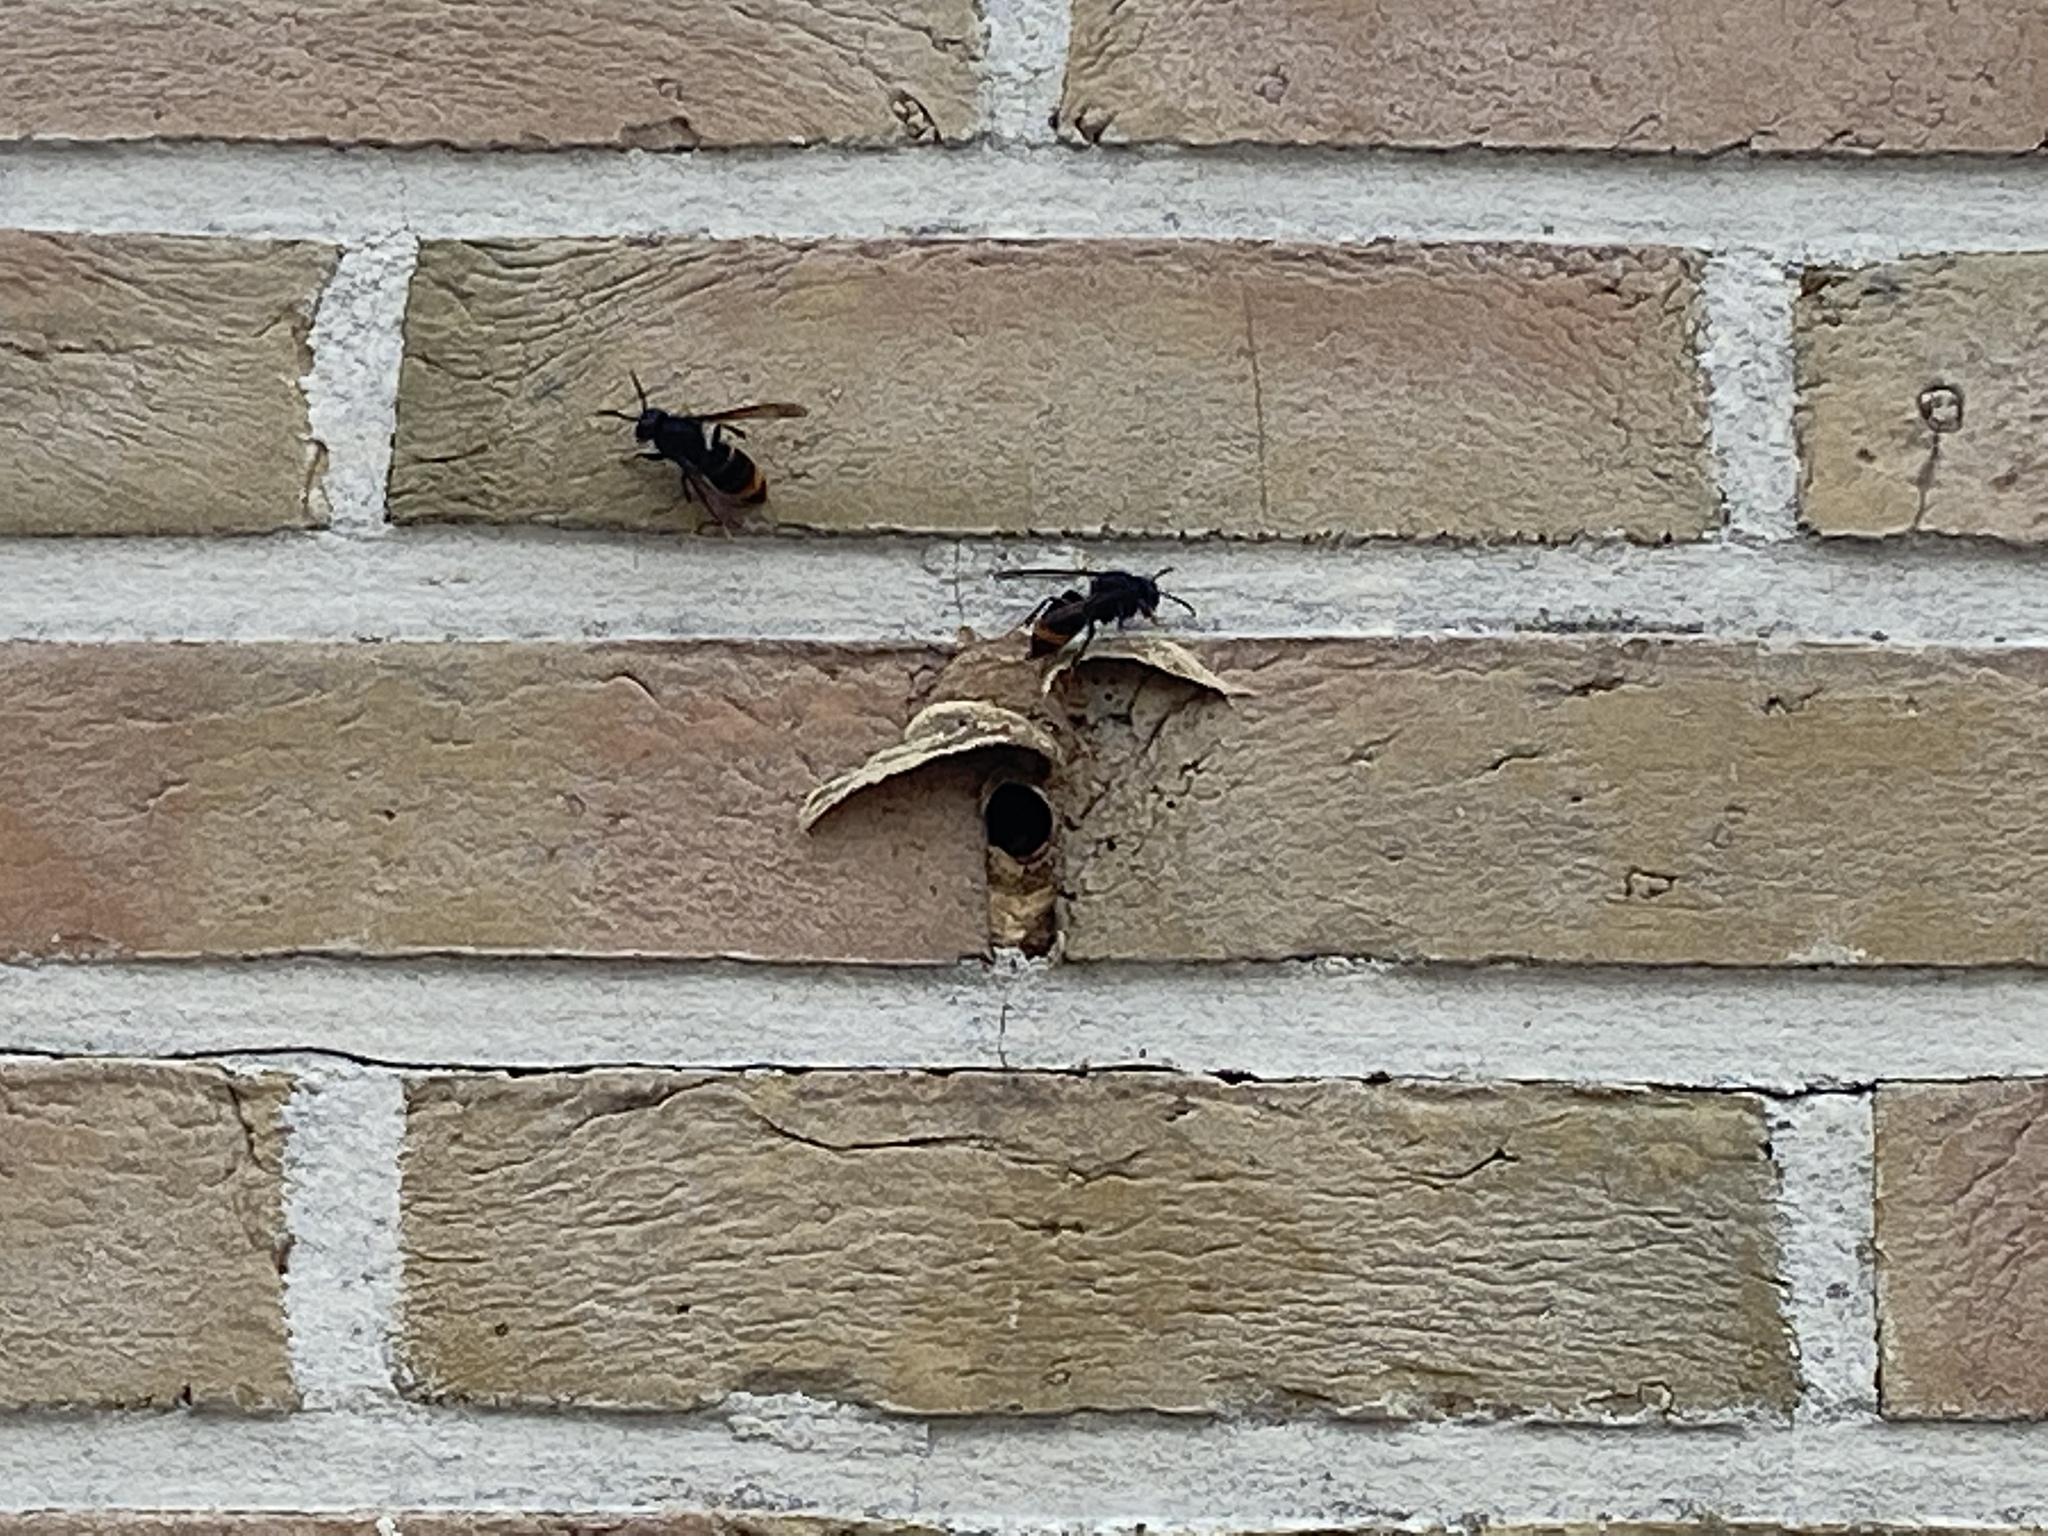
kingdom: Animalia
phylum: Arthropoda
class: Insecta
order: Hymenoptera
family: Vespidae
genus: Vespa
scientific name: Vespa velutina
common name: Asian hornet
